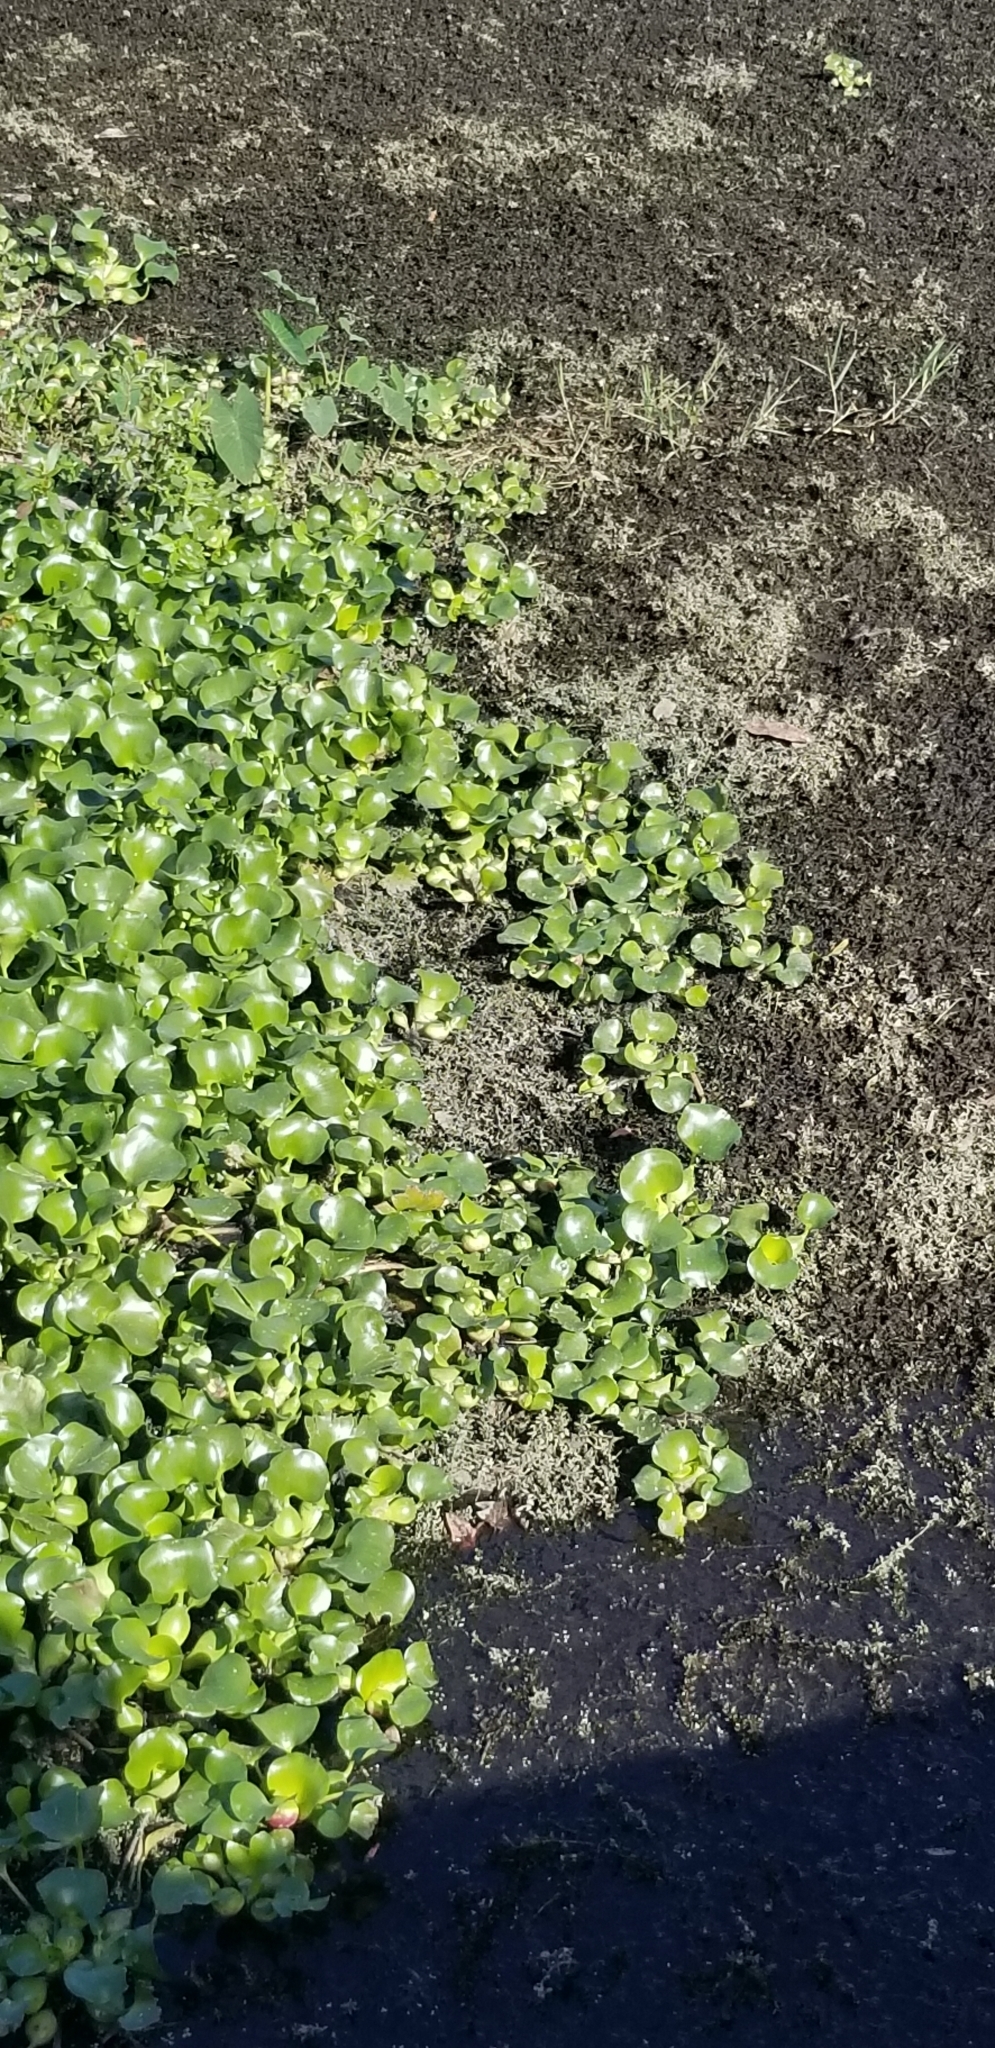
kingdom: Plantae
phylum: Tracheophyta
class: Liliopsida
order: Commelinales
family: Pontederiaceae
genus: Pontederia
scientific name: Pontederia crassipes
